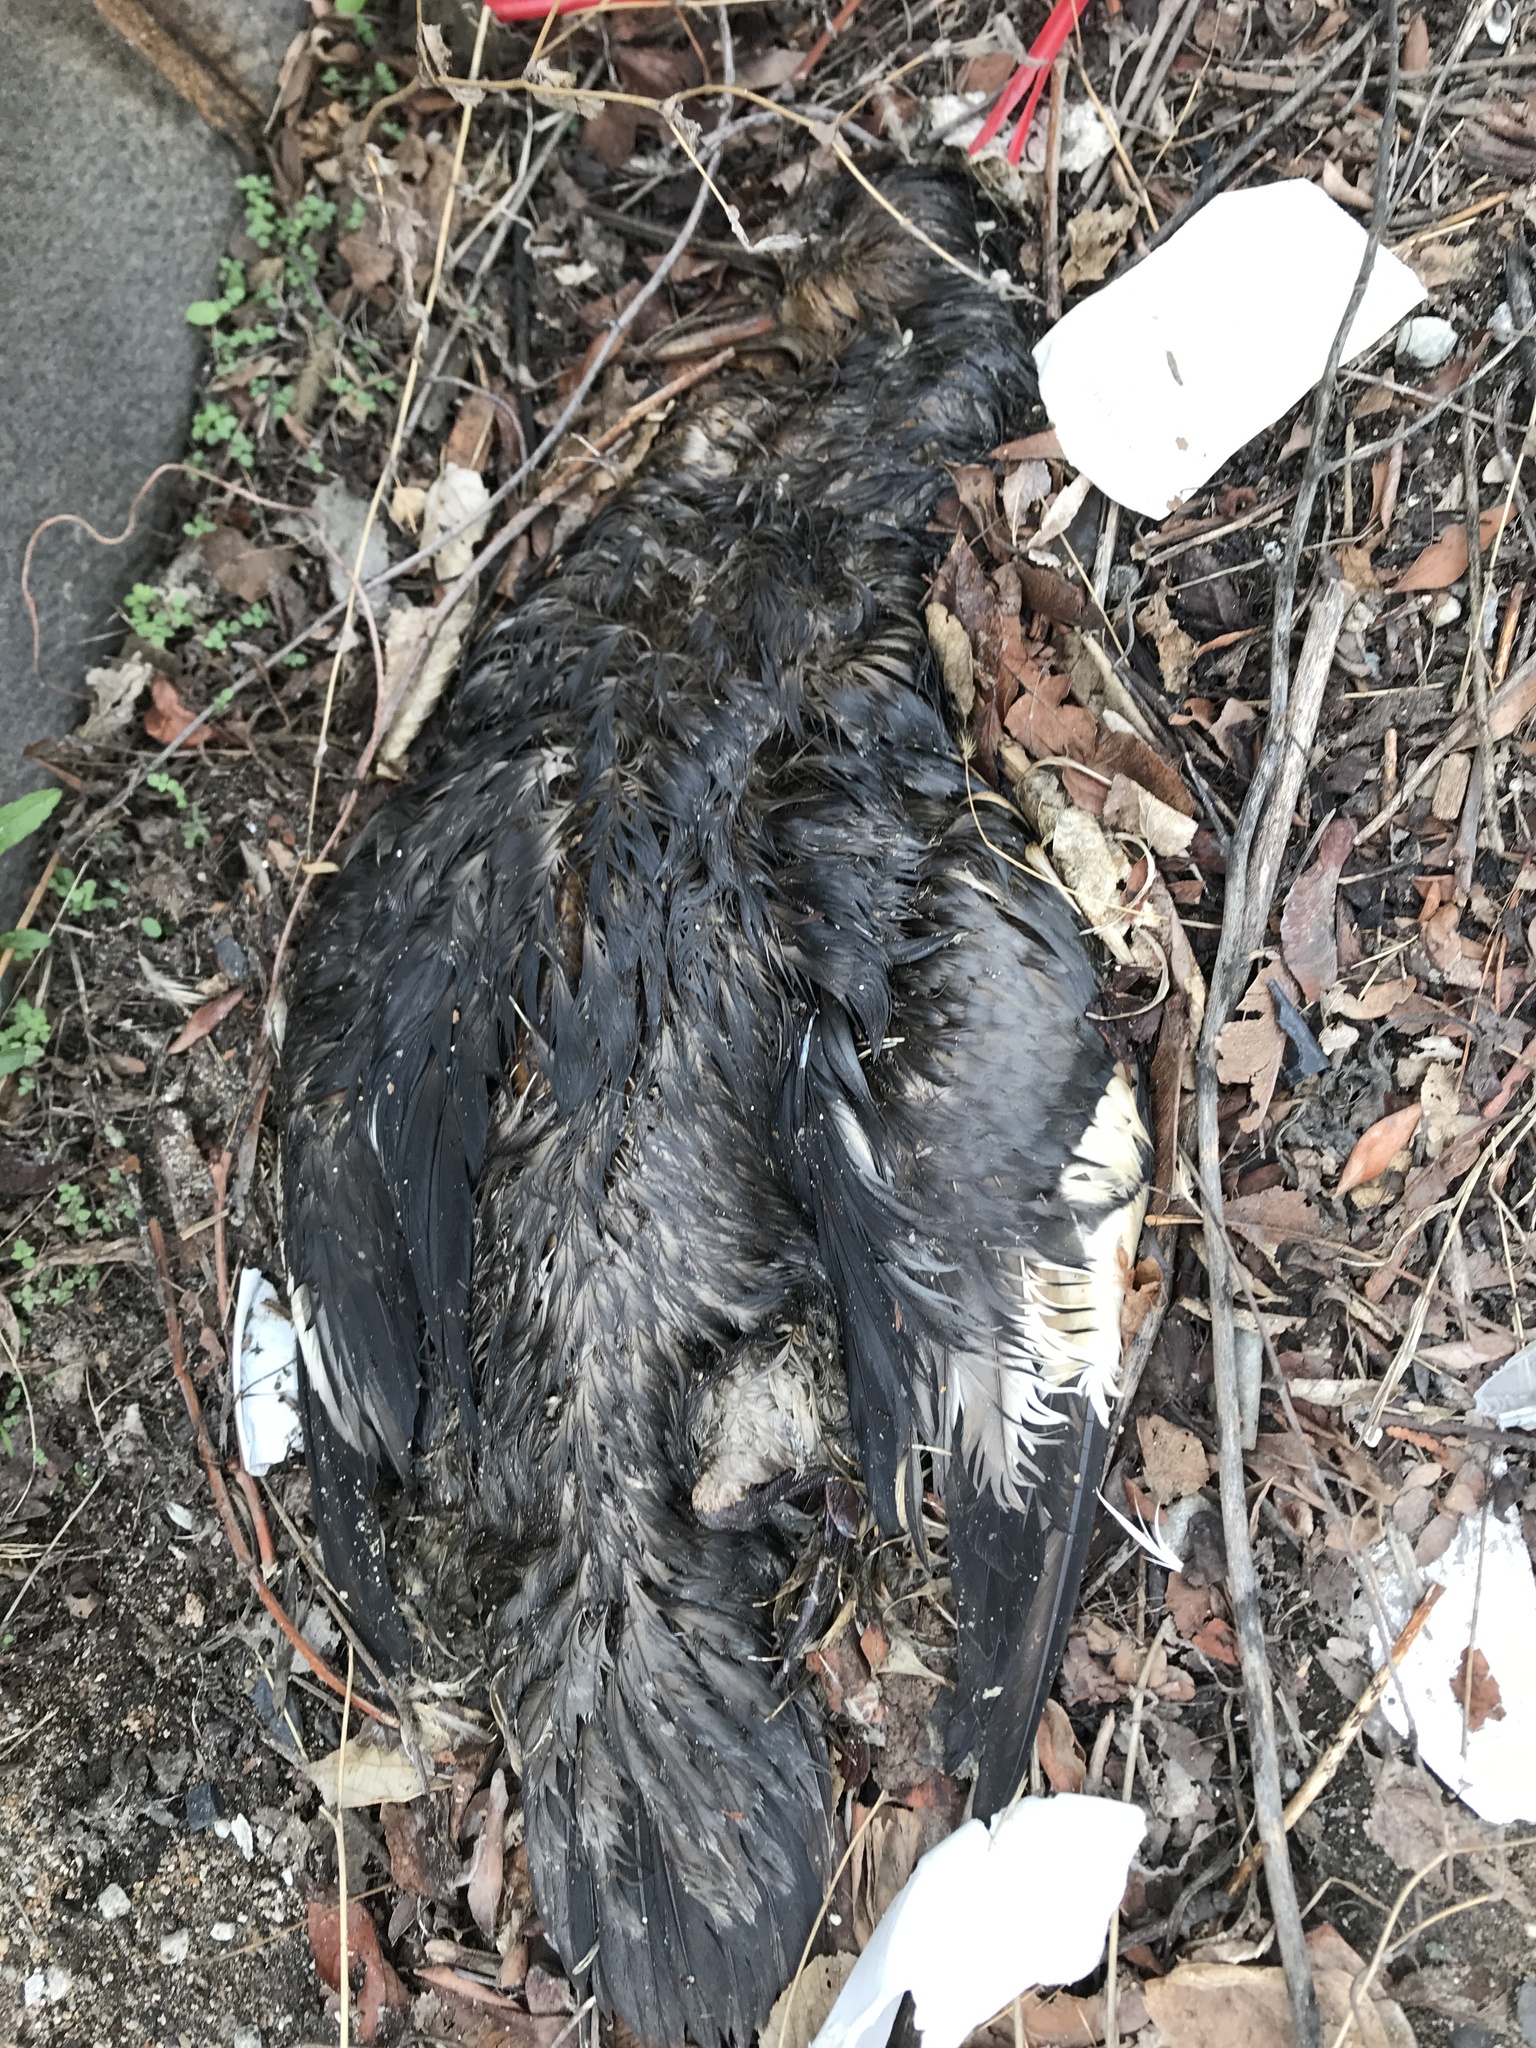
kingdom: Animalia
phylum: Chordata
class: Aves
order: Anseriformes
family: Anatidae
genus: Mergus
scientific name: Mergus serrator
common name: Red-breasted merganser
